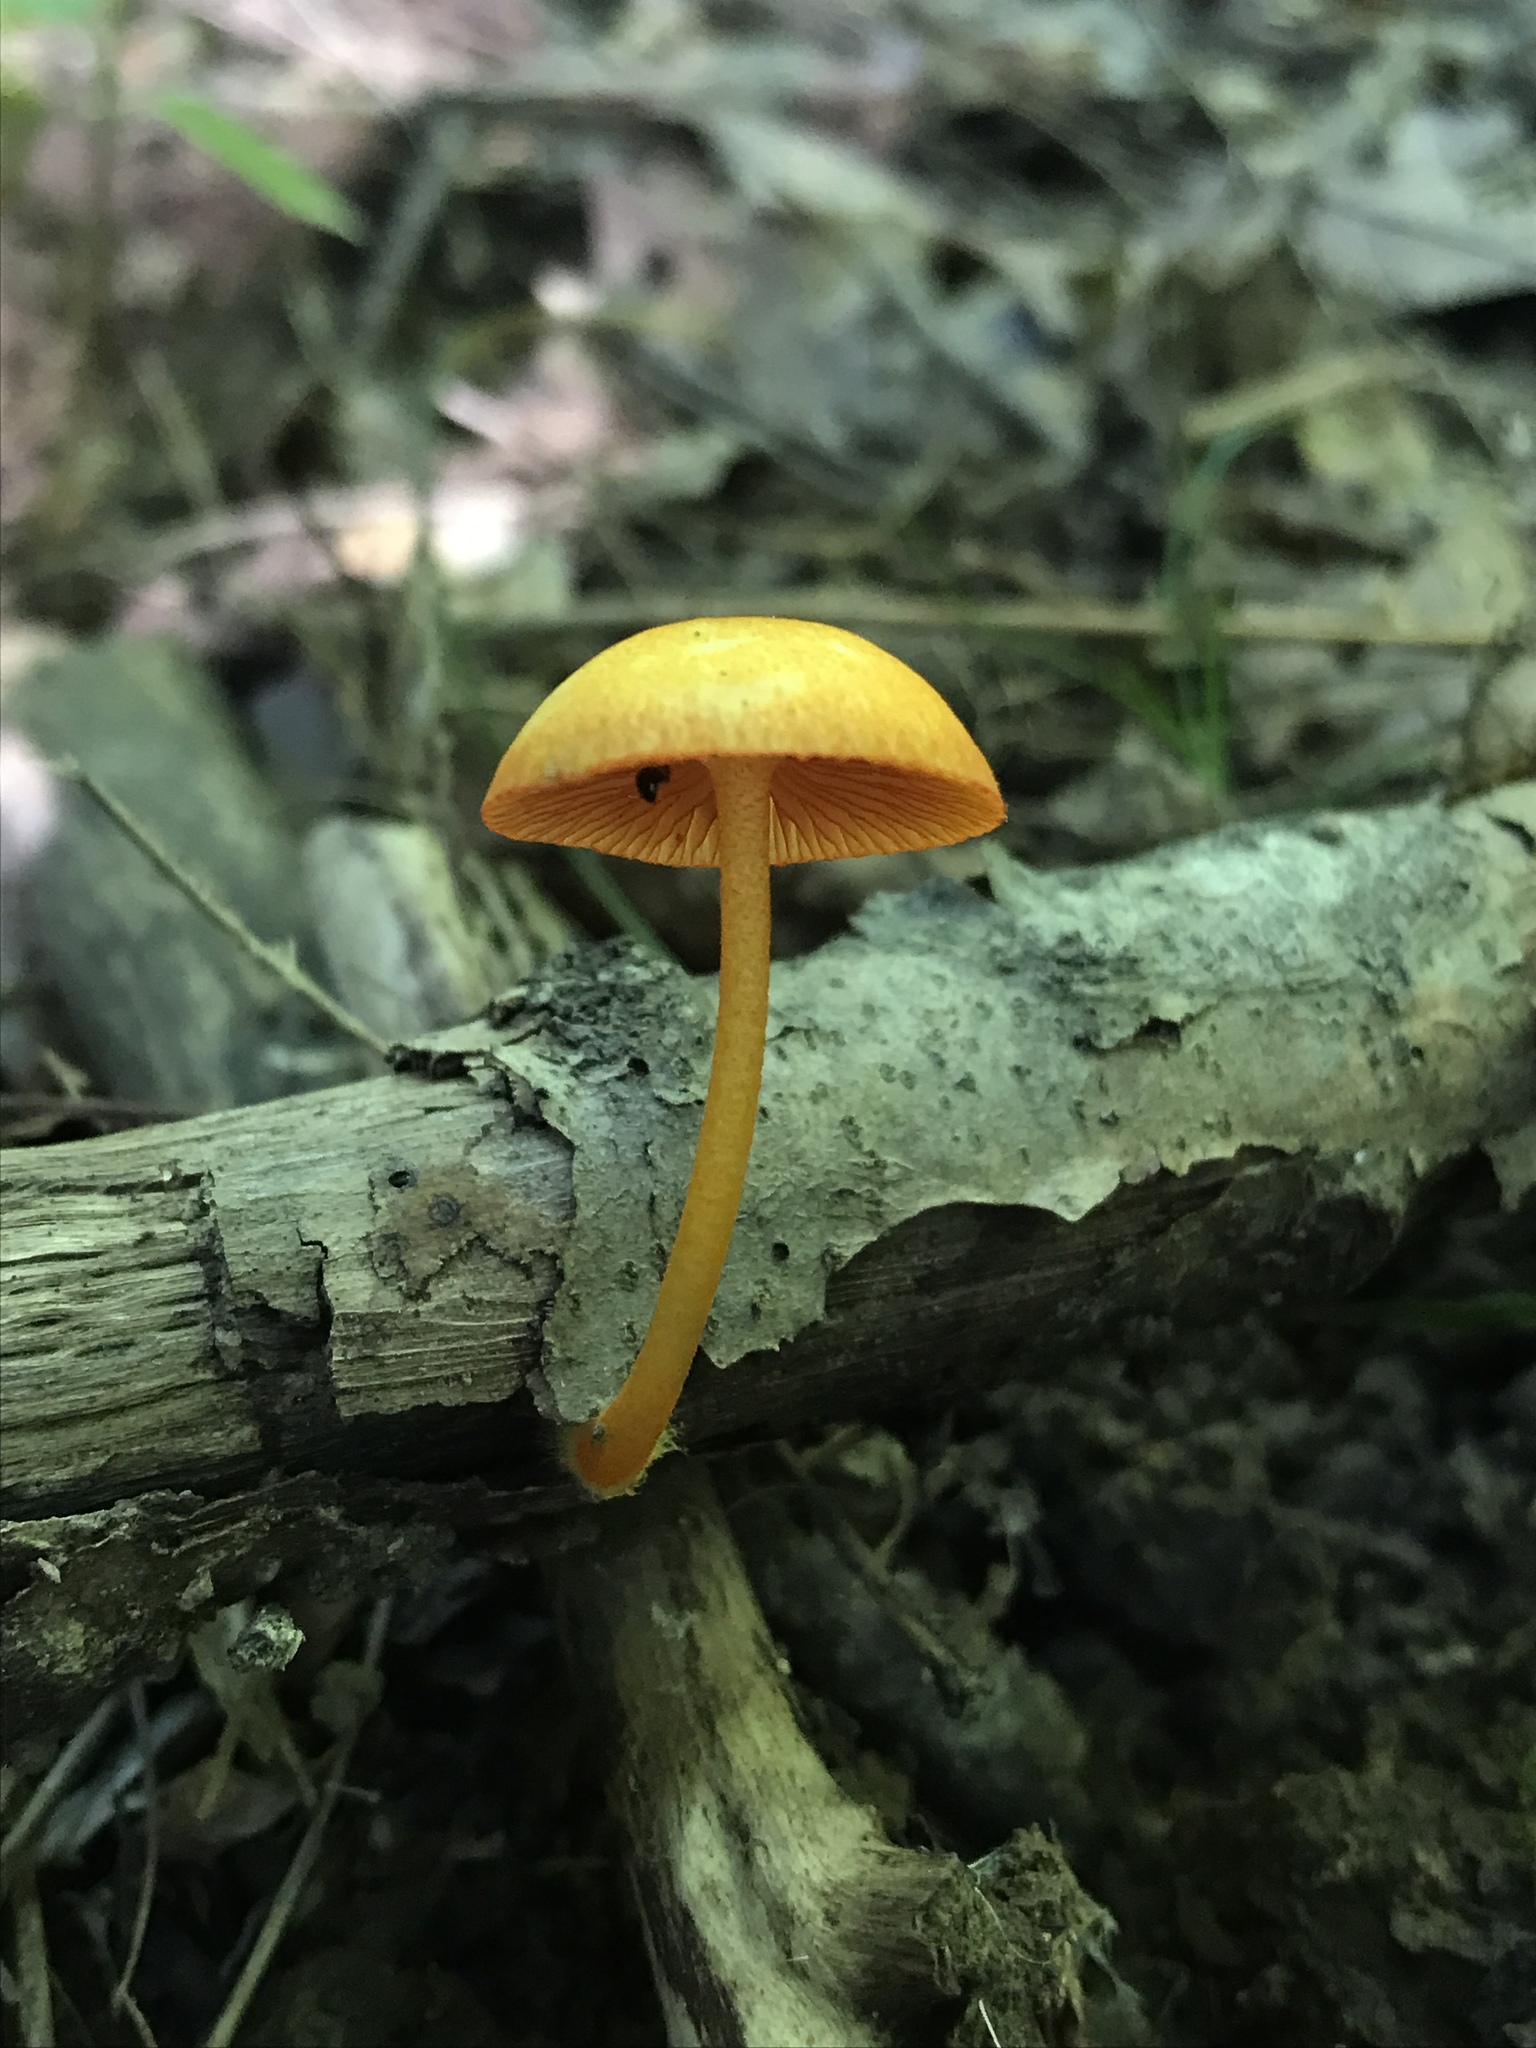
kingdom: Fungi
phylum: Basidiomycota
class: Agaricomycetes
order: Agaricales
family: Mycenaceae
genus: Mycena
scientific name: Mycena leaiana
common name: Orange mycena
